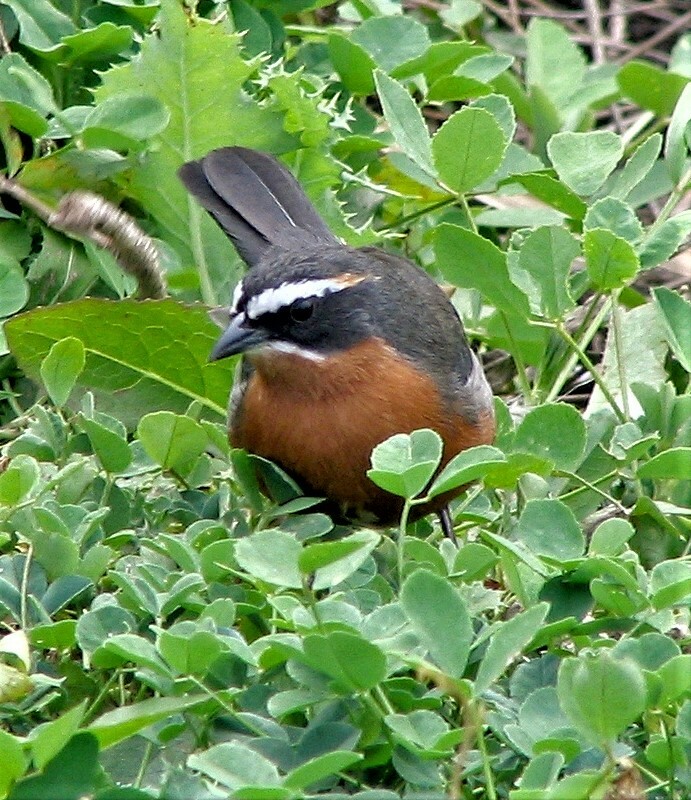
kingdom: Animalia
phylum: Chordata
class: Aves
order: Passeriformes
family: Thraupidae
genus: Poospiza
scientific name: Poospiza nigrorufa
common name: Black-and-rufous warbling finch
